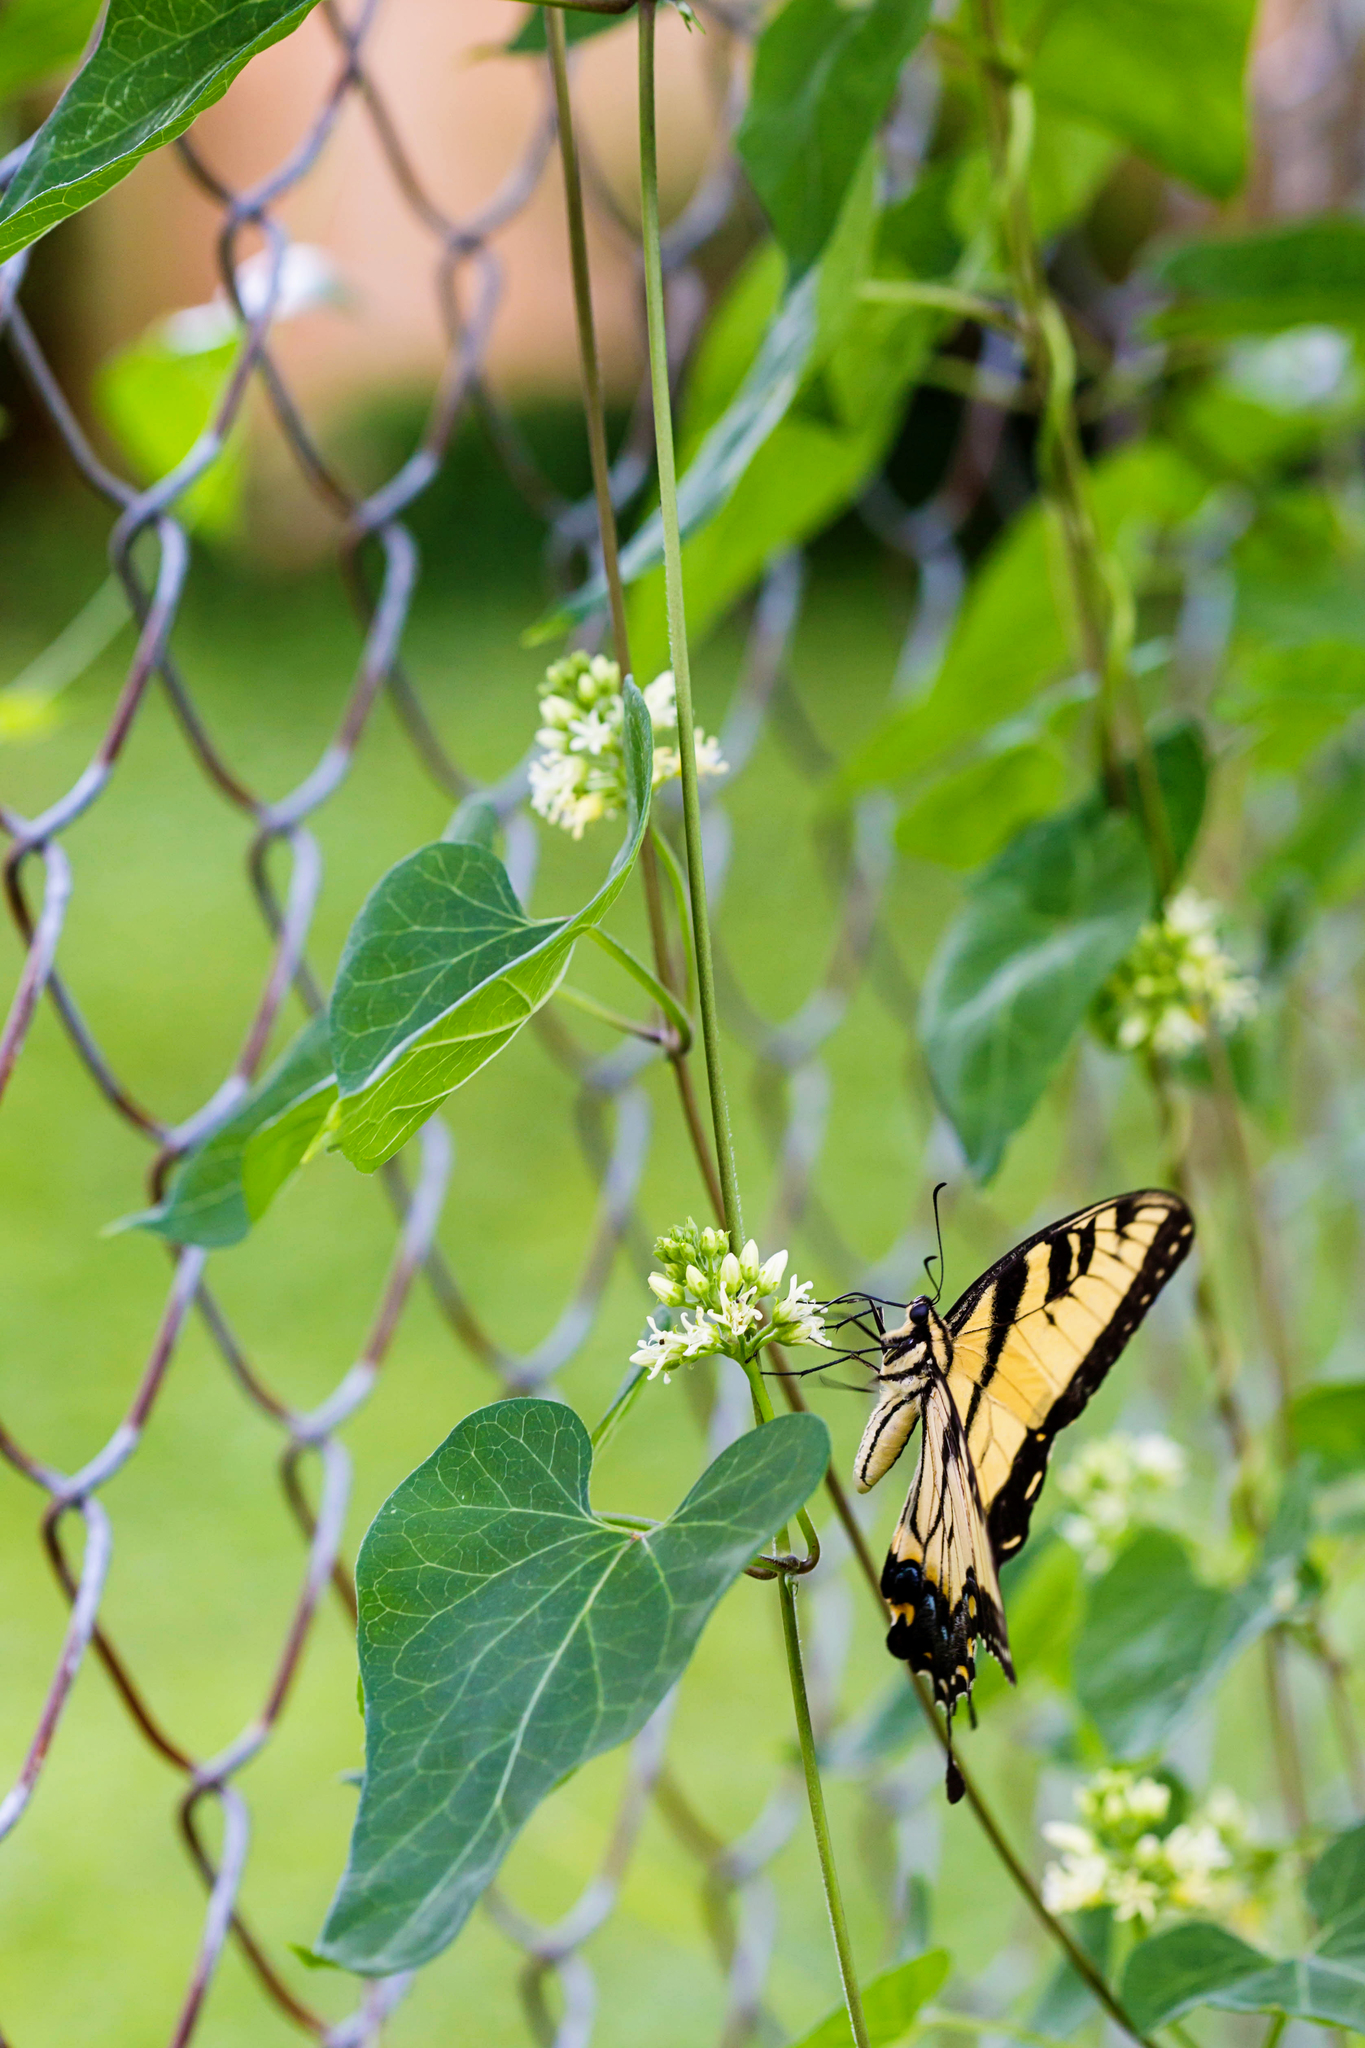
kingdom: Animalia
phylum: Arthropoda
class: Insecta
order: Lepidoptera
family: Papilionidae
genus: Papilio
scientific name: Papilio glaucus
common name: Tiger swallowtail
